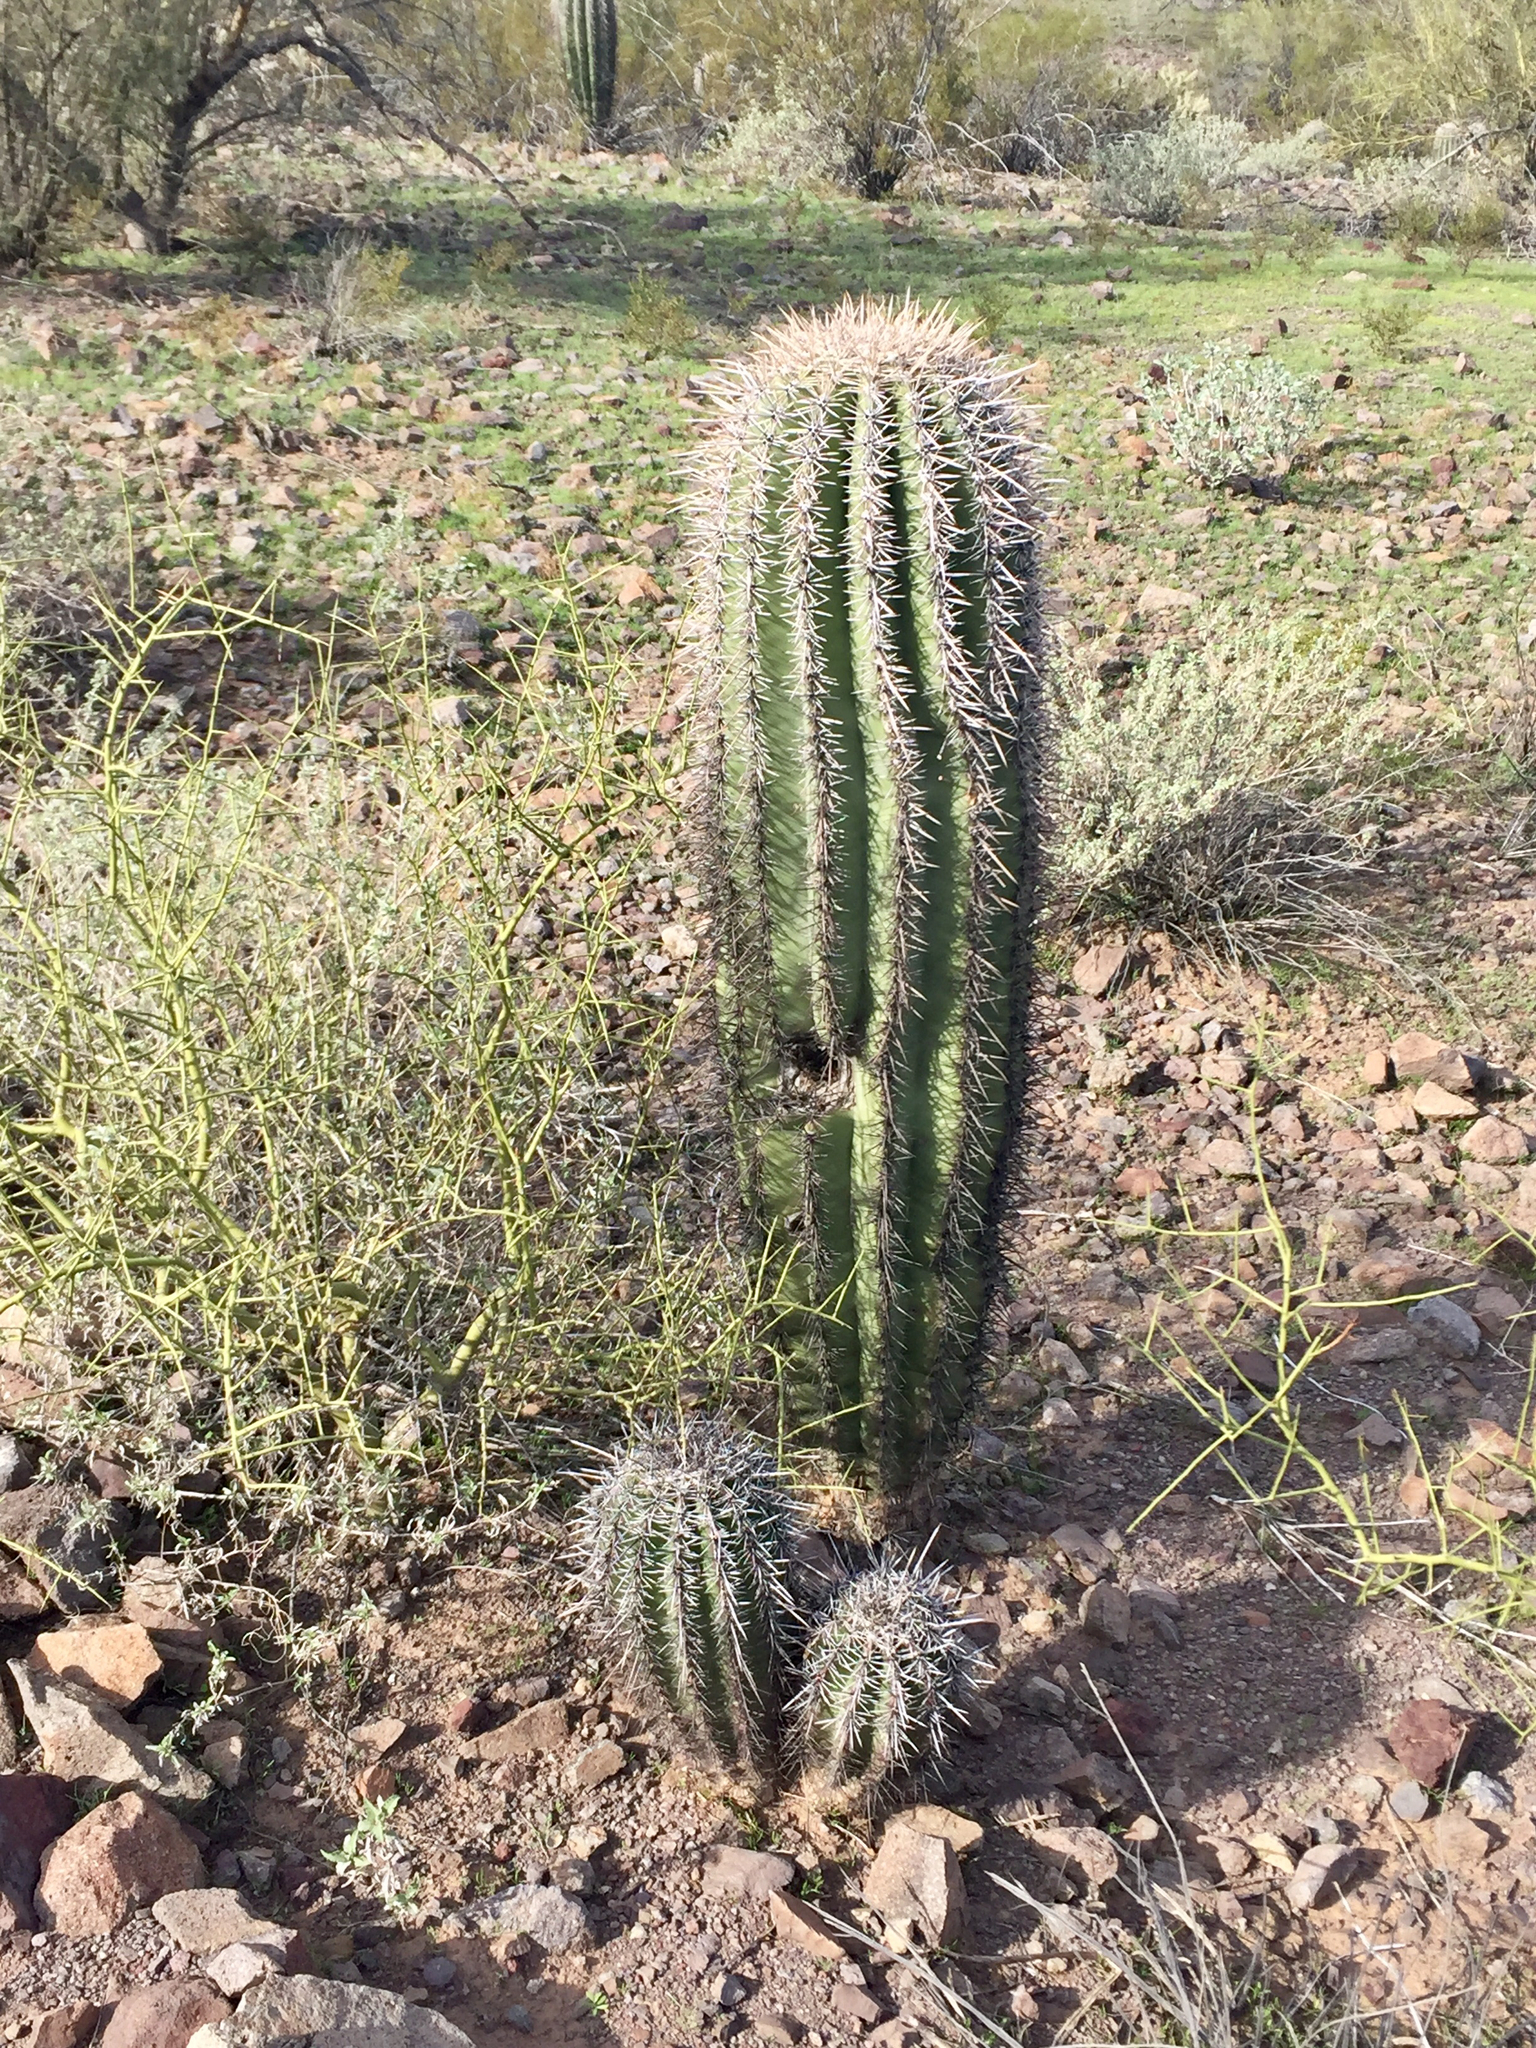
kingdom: Plantae
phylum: Tracheophyta
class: Magnoliopsida
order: Caryophyllales
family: Cactaceae
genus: Carnegiea
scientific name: Carnegiea gigantea
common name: Saguaro
